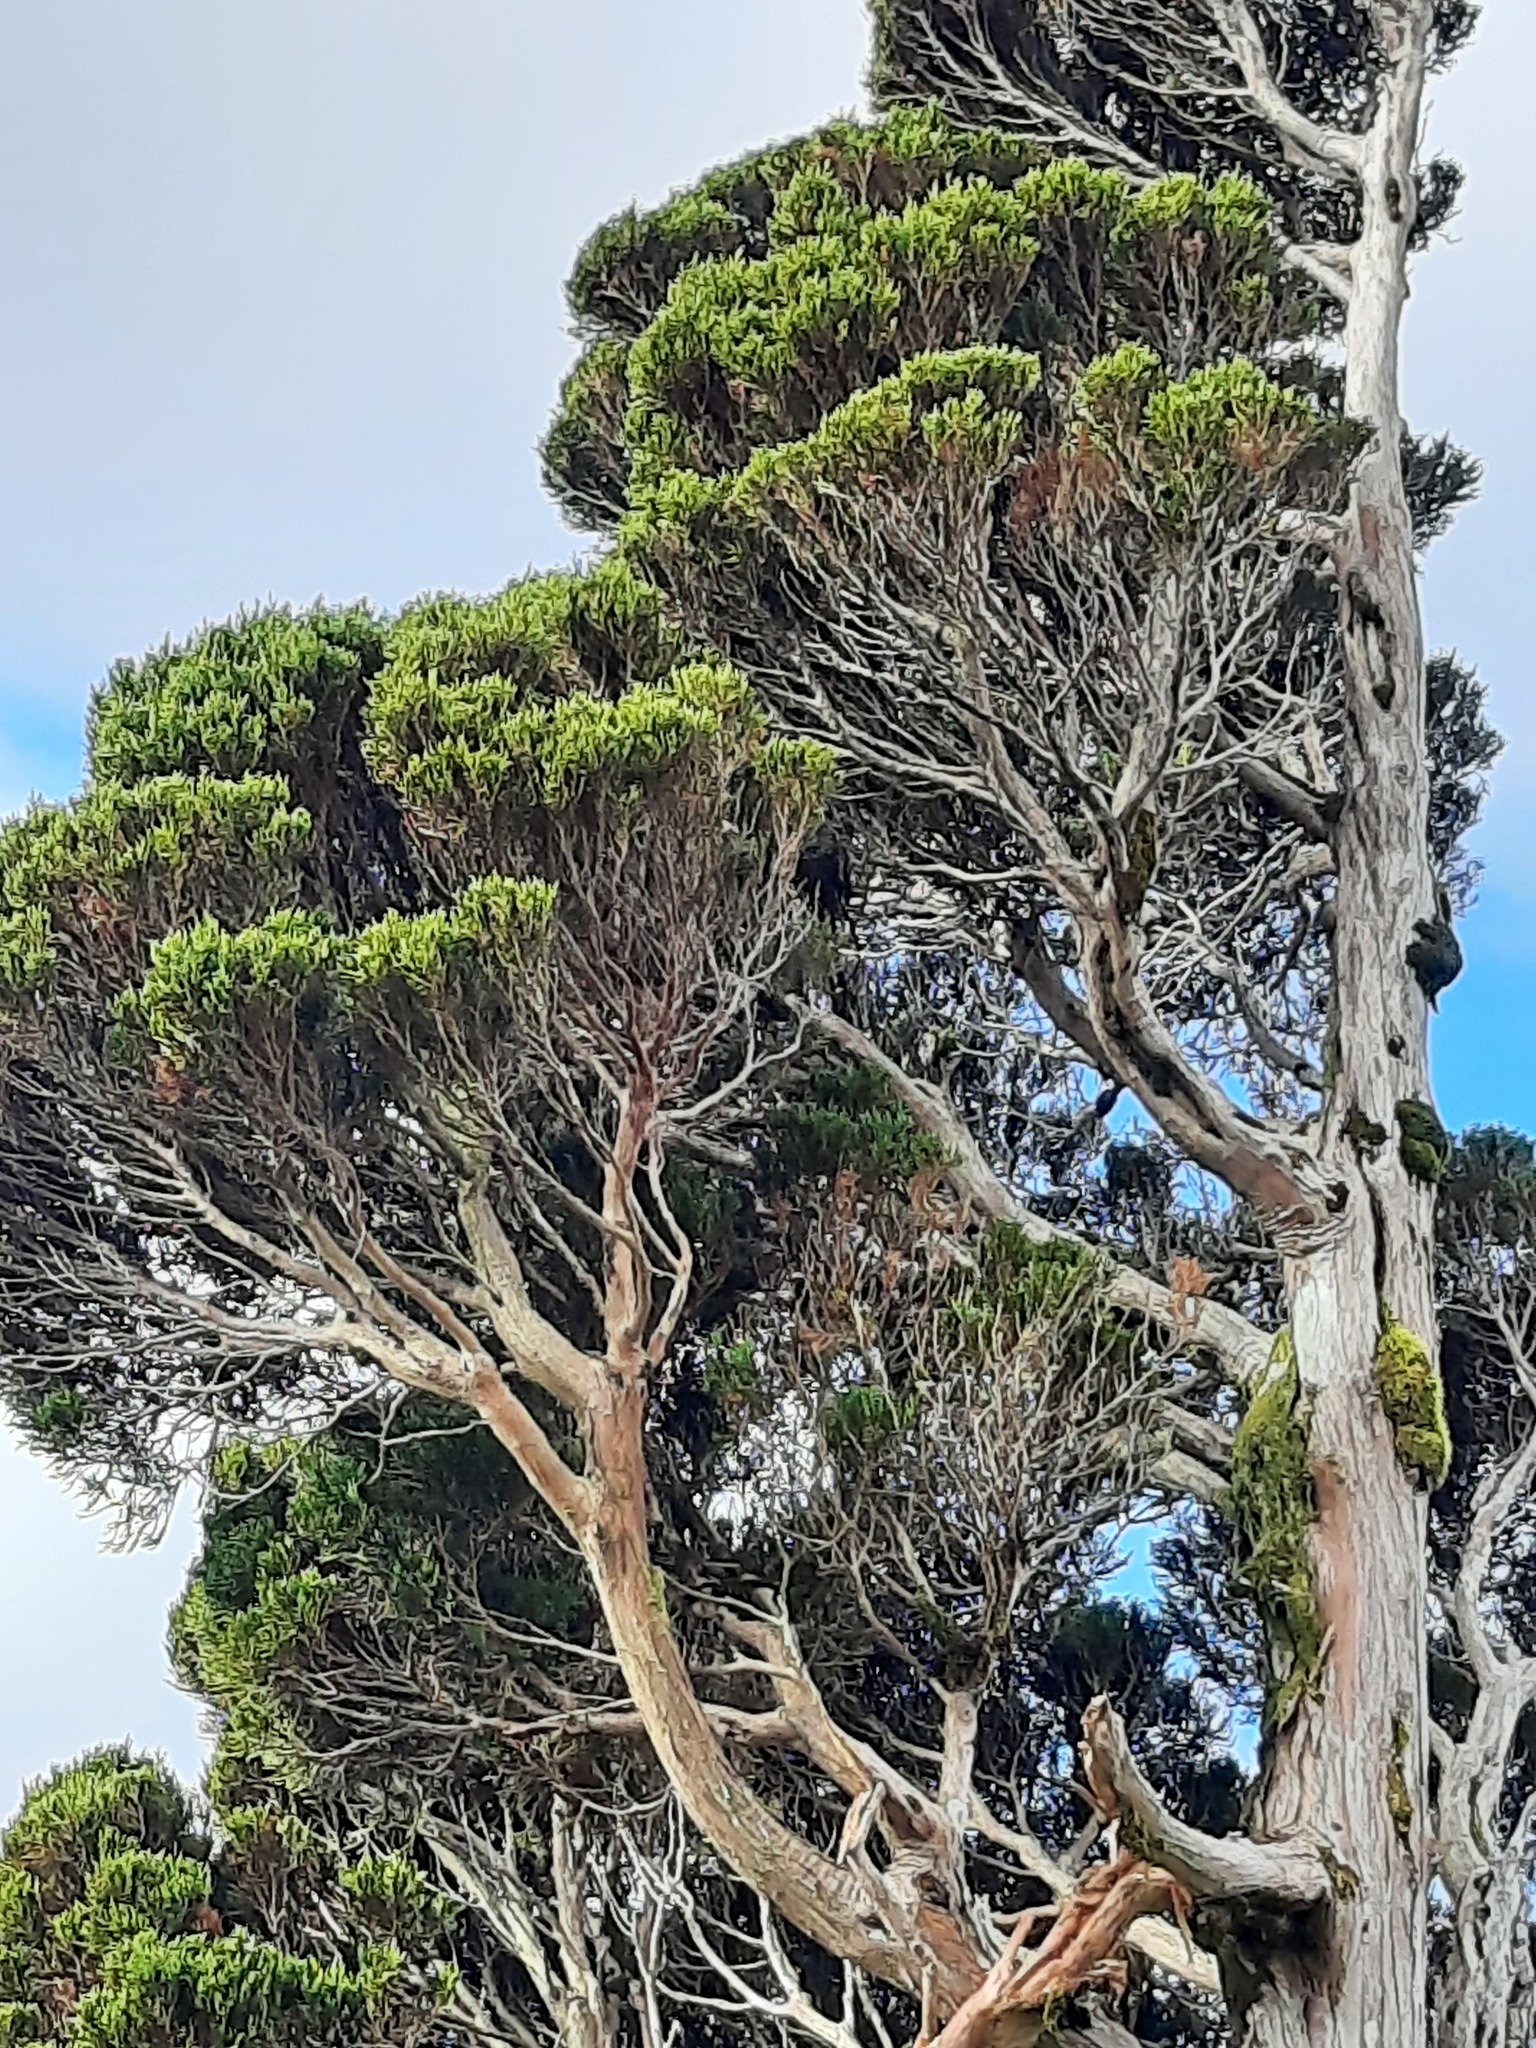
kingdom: Plantae
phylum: Tracheophyta
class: Pinopsida
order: Pinales
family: Cupressaceae
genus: Libocedrus
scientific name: Libocedrus bidwillii
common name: Cedar
